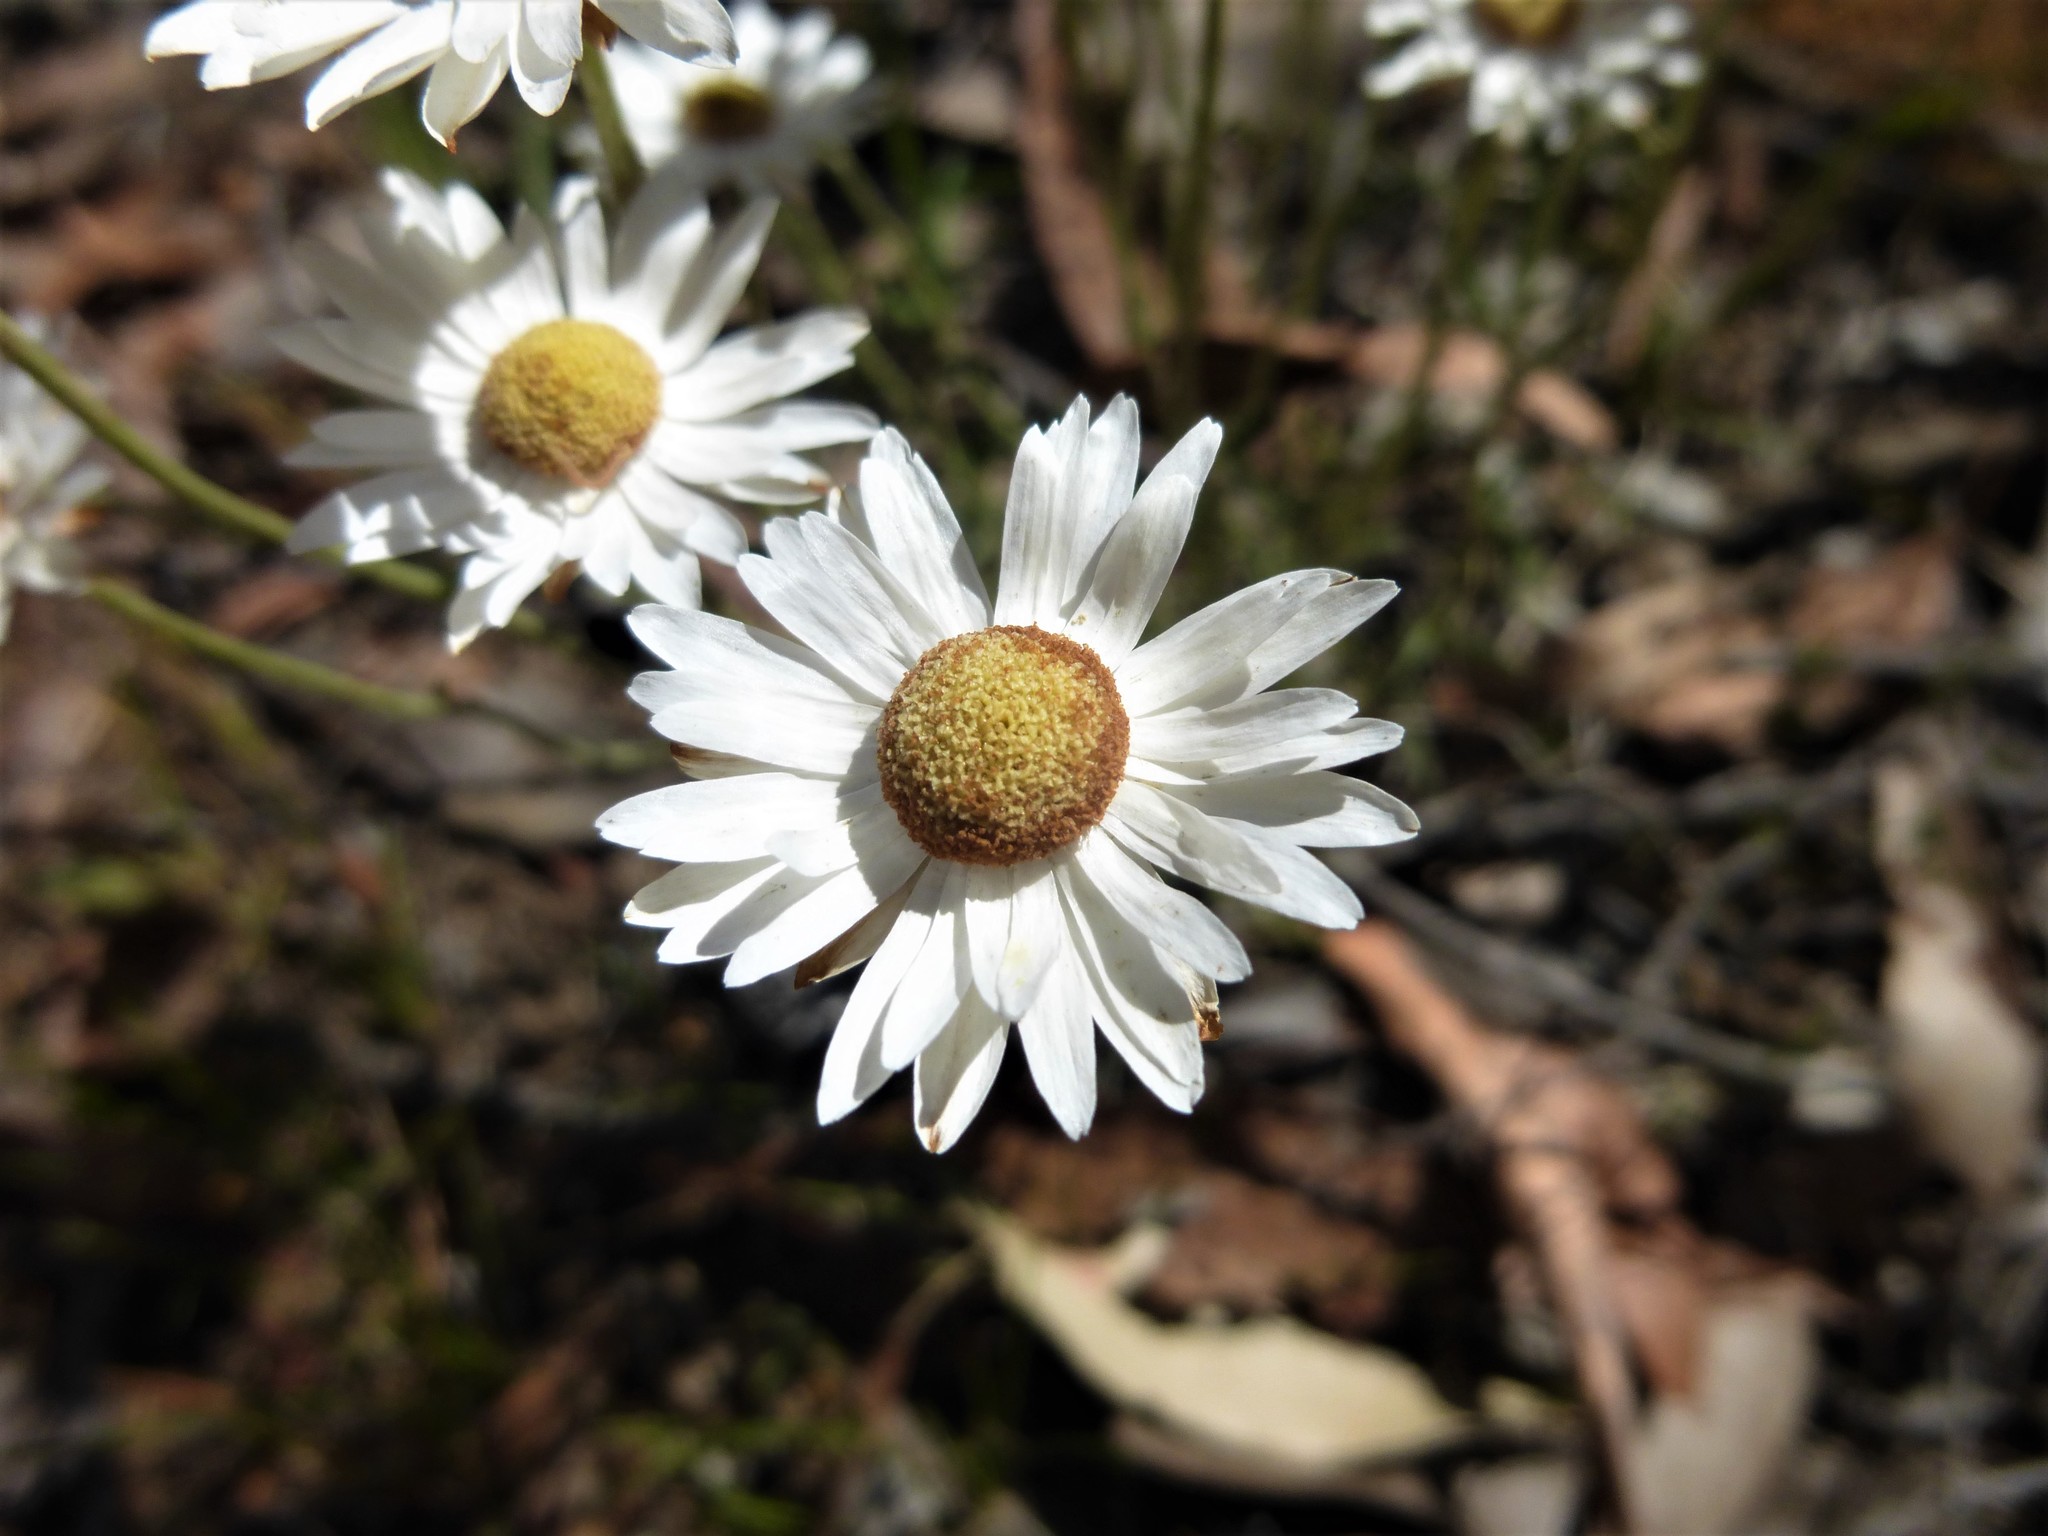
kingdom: Plantae
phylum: Tracheophyta
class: Magnoliopsida
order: Asterales
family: Asteraceae
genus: Argentipallium
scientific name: Argentipallium obtusifolium
